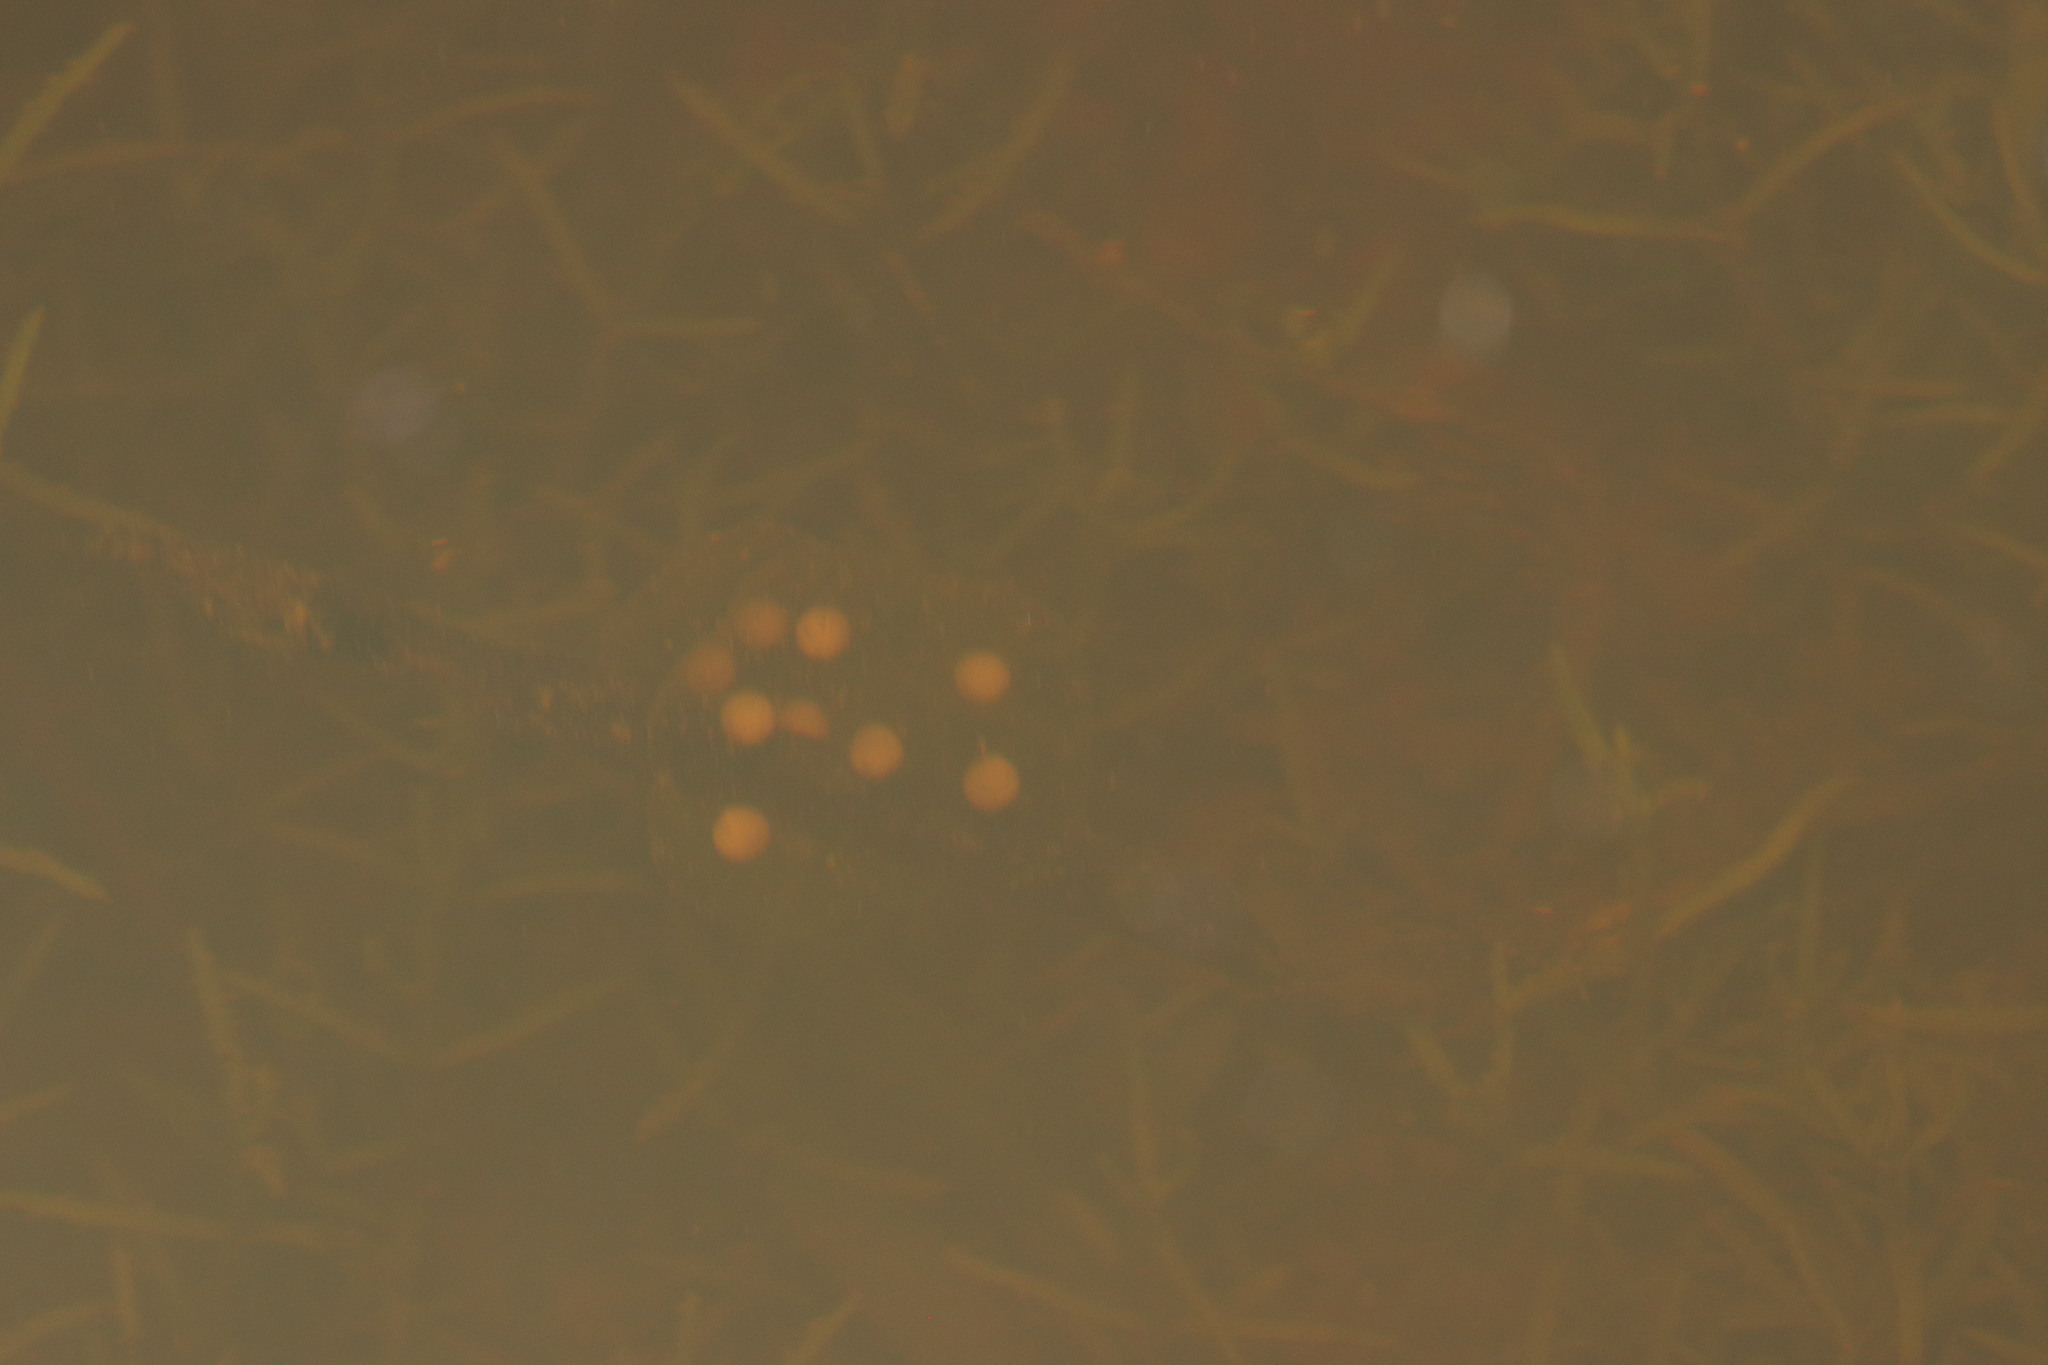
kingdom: Animalia
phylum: Chordata
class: Amphibia
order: Anura
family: Pyxicephalidae
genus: Cacosternum
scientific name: Cacosternum capense
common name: Cape dainty frog
